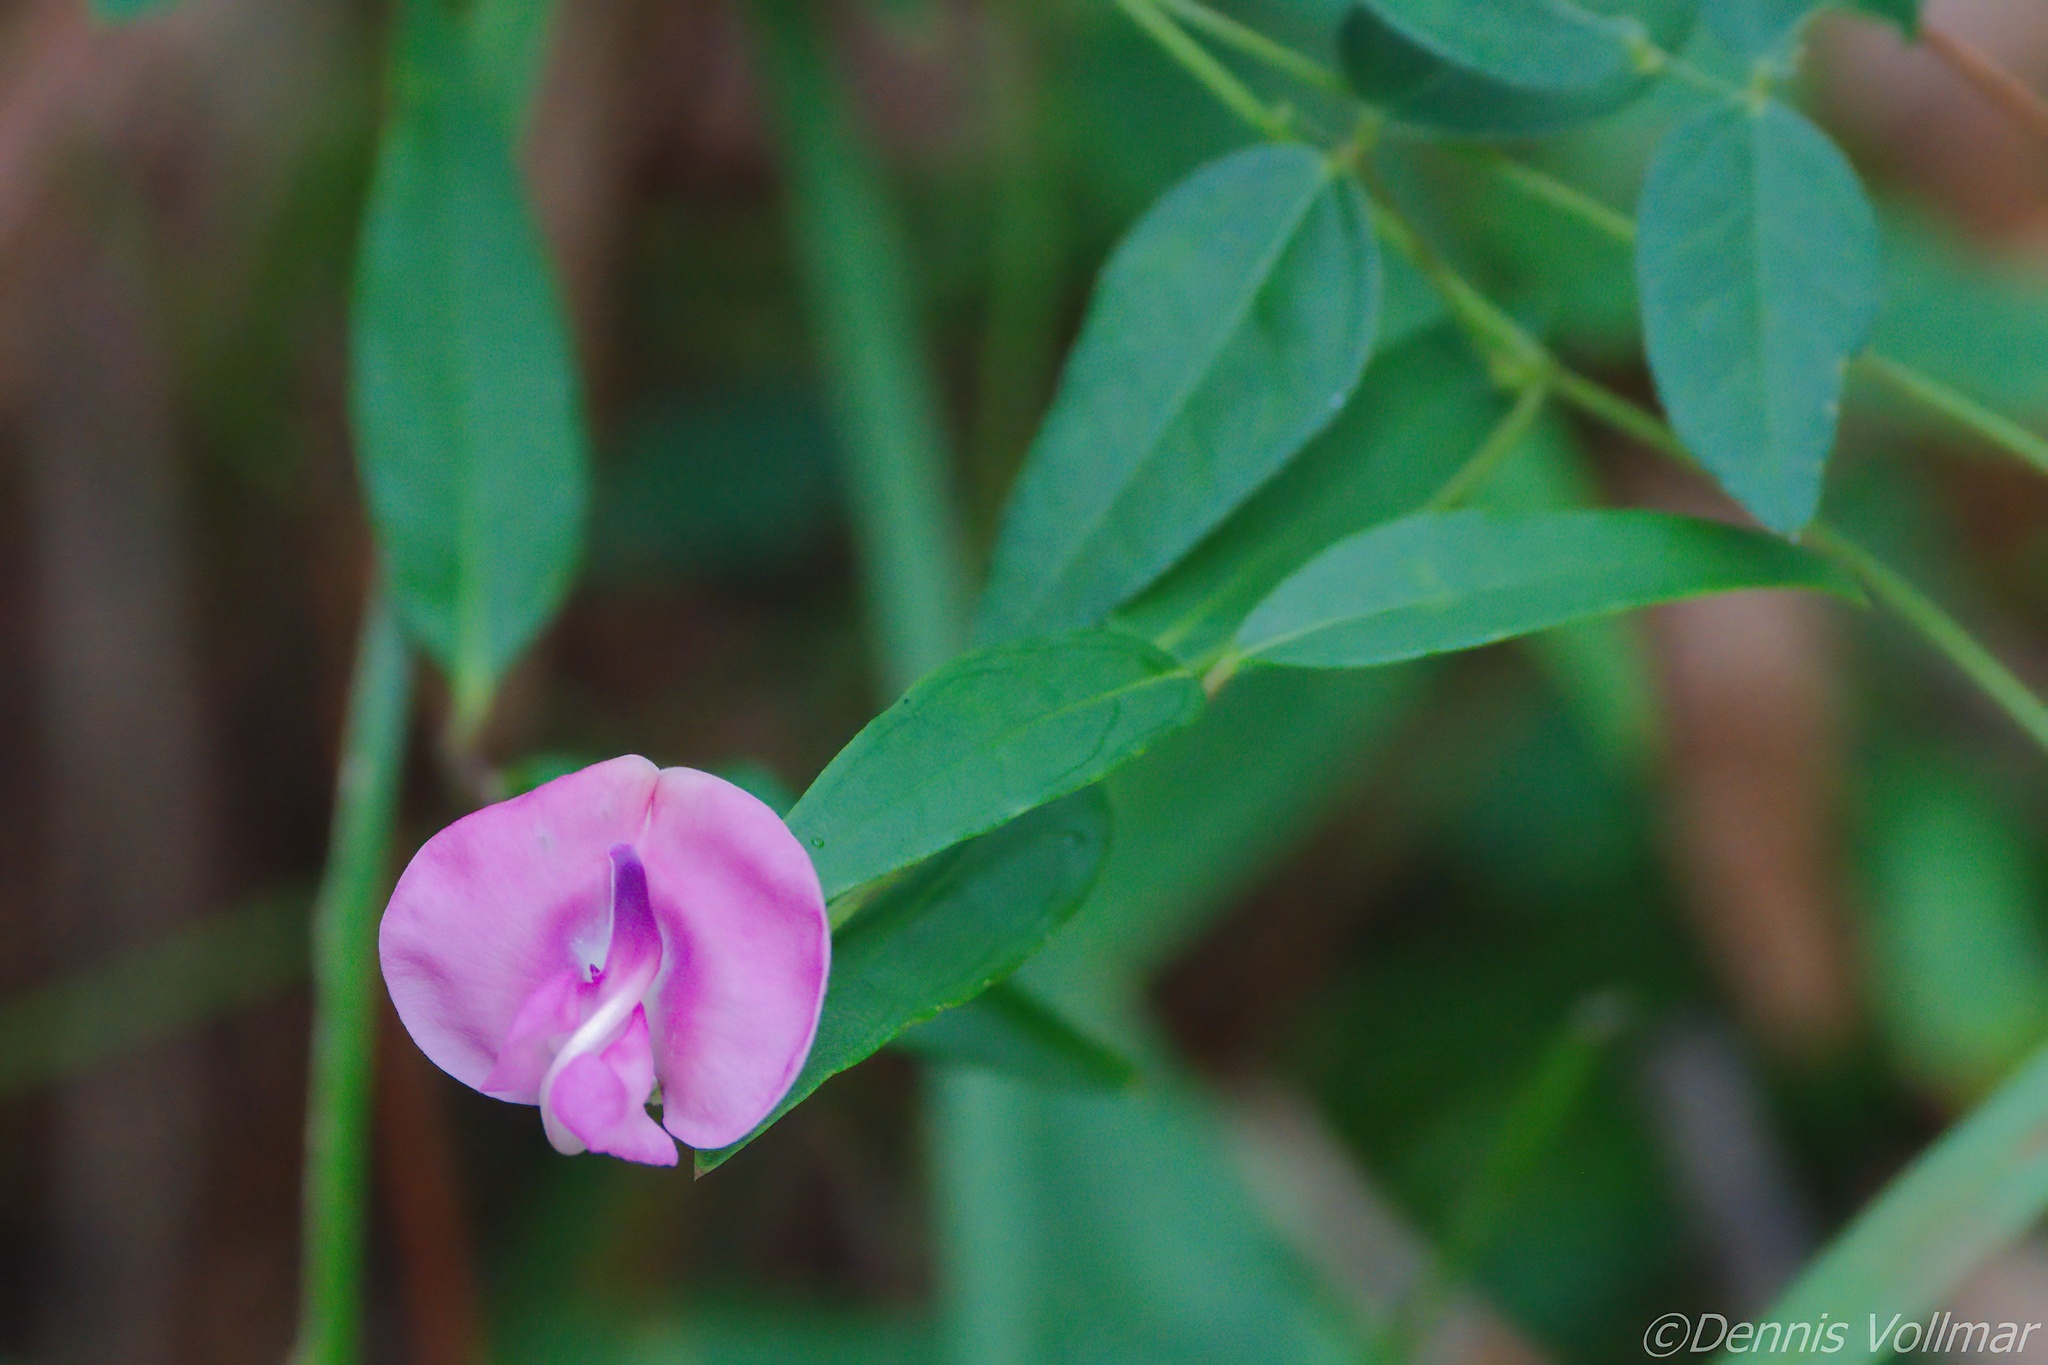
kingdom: Plantae
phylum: Tracheophyta
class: Magnoliopsida
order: Fabales
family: Fabaceae
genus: Strophostyles
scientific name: Strophostyles umbellata
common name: Perennial wild bean
